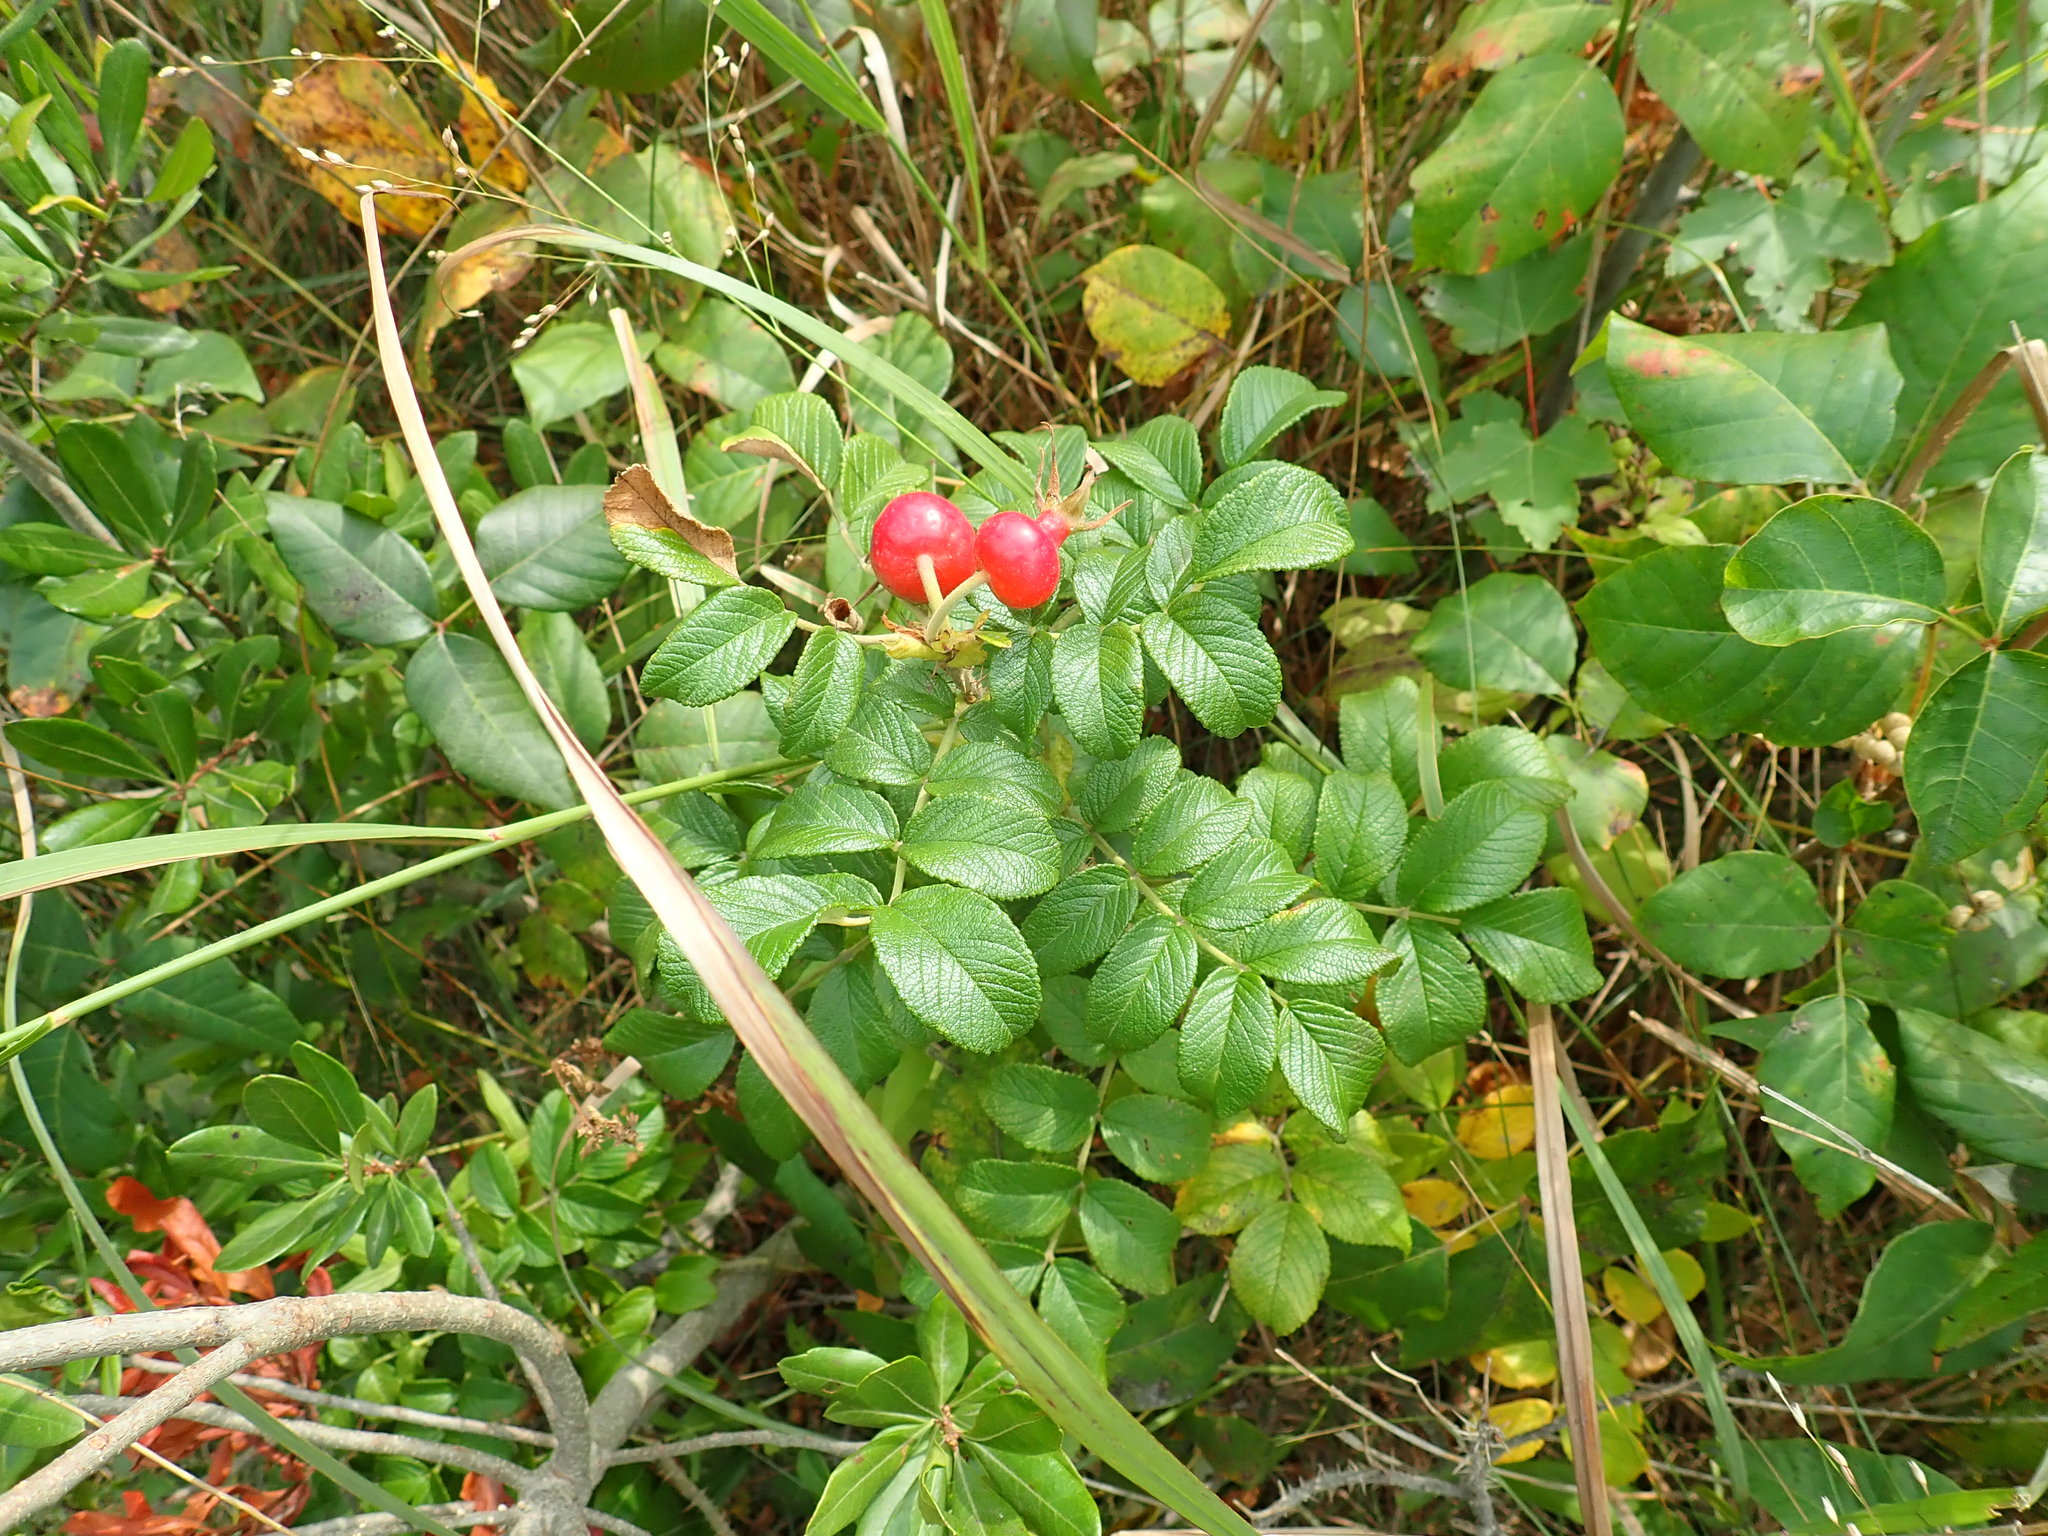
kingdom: Plantae
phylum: Tracheophyta
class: Magnoliopsida
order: Rosales
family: Rosaceae
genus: Rosa
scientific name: Rosa rugosa
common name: Japanese rose
